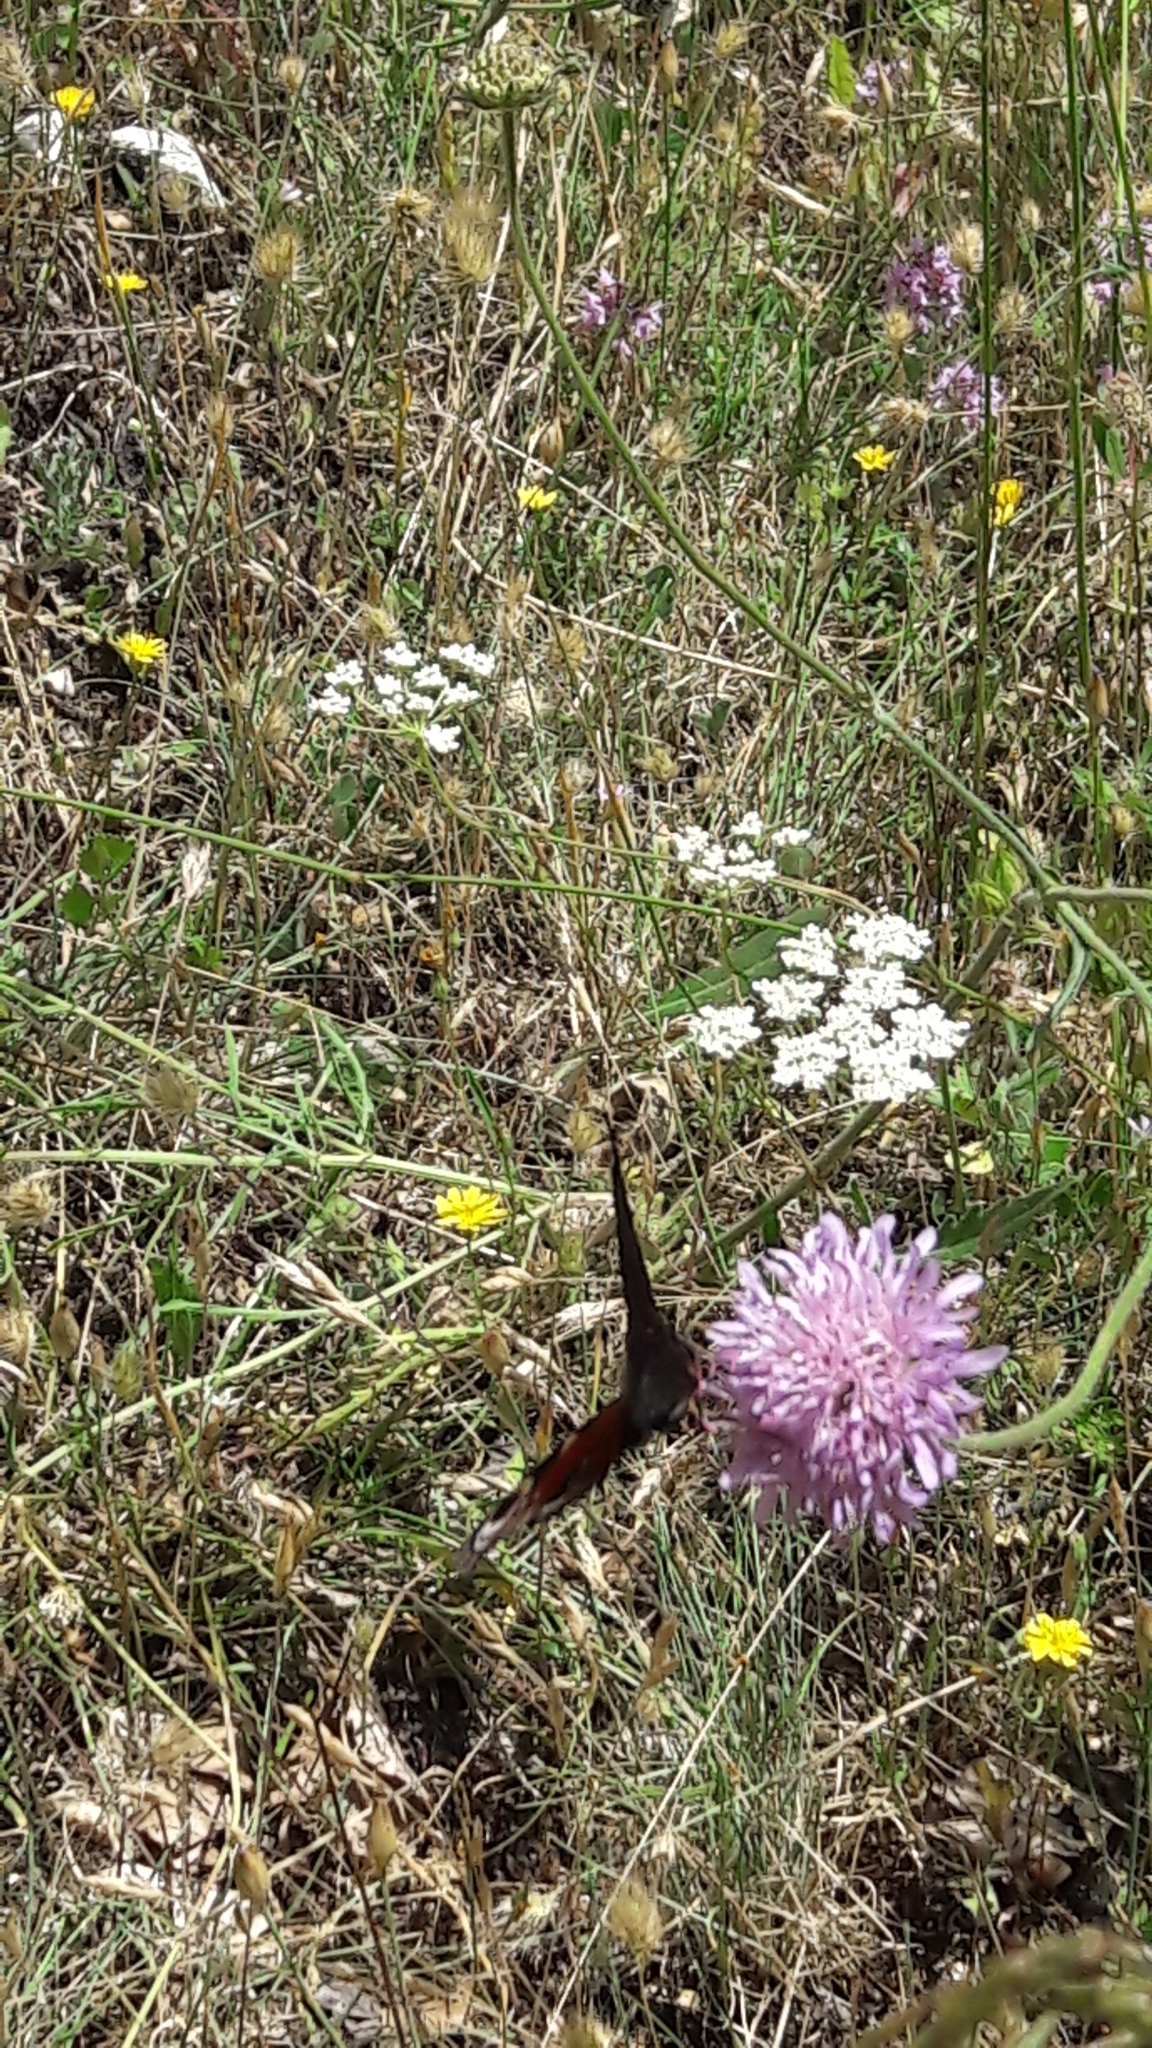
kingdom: Animalia
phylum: Arthropoda
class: Insecta
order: Lepidoptera
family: Nymphalidae
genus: Aglais
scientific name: Aglais io
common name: Peacock
